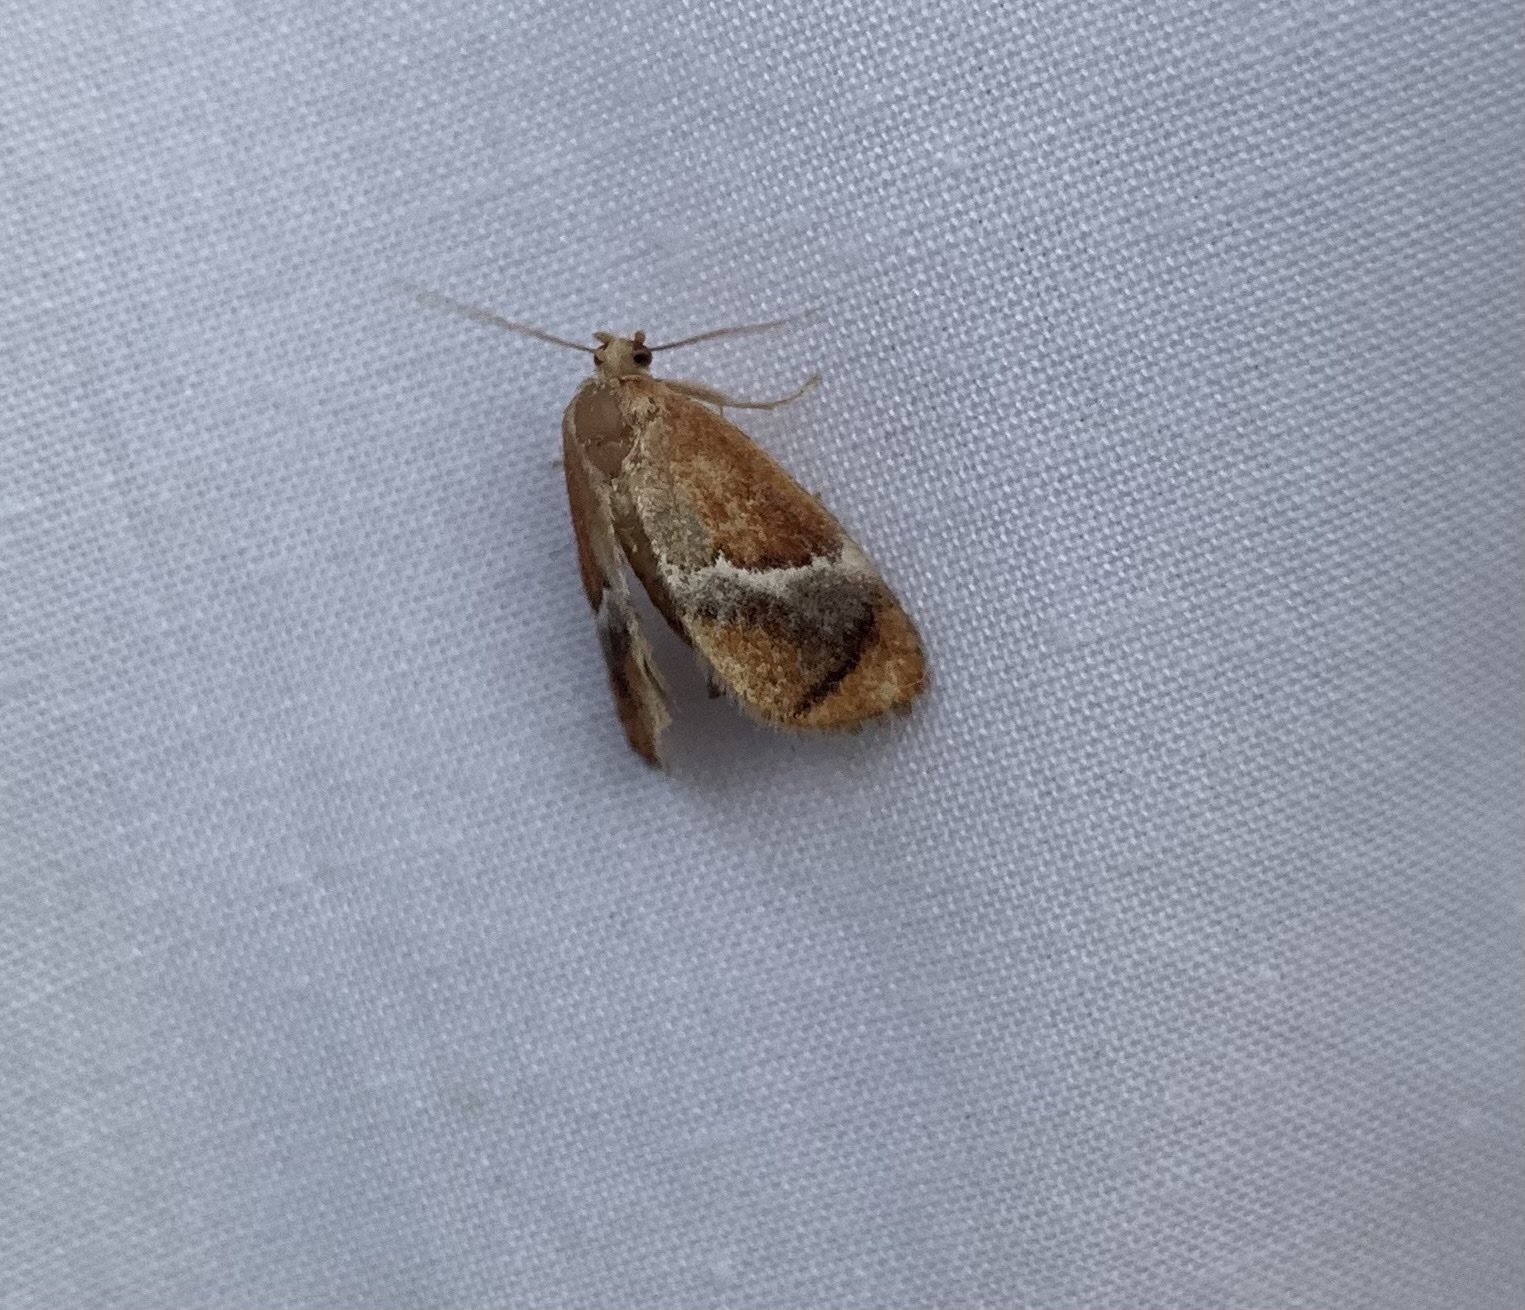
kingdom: Animalia
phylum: Arthropoda
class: Insecta
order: Lepidoptera
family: Limacodidae
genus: Lithacodes
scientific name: Lithacodes fasciola
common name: Yellow-shouldered slug moth
